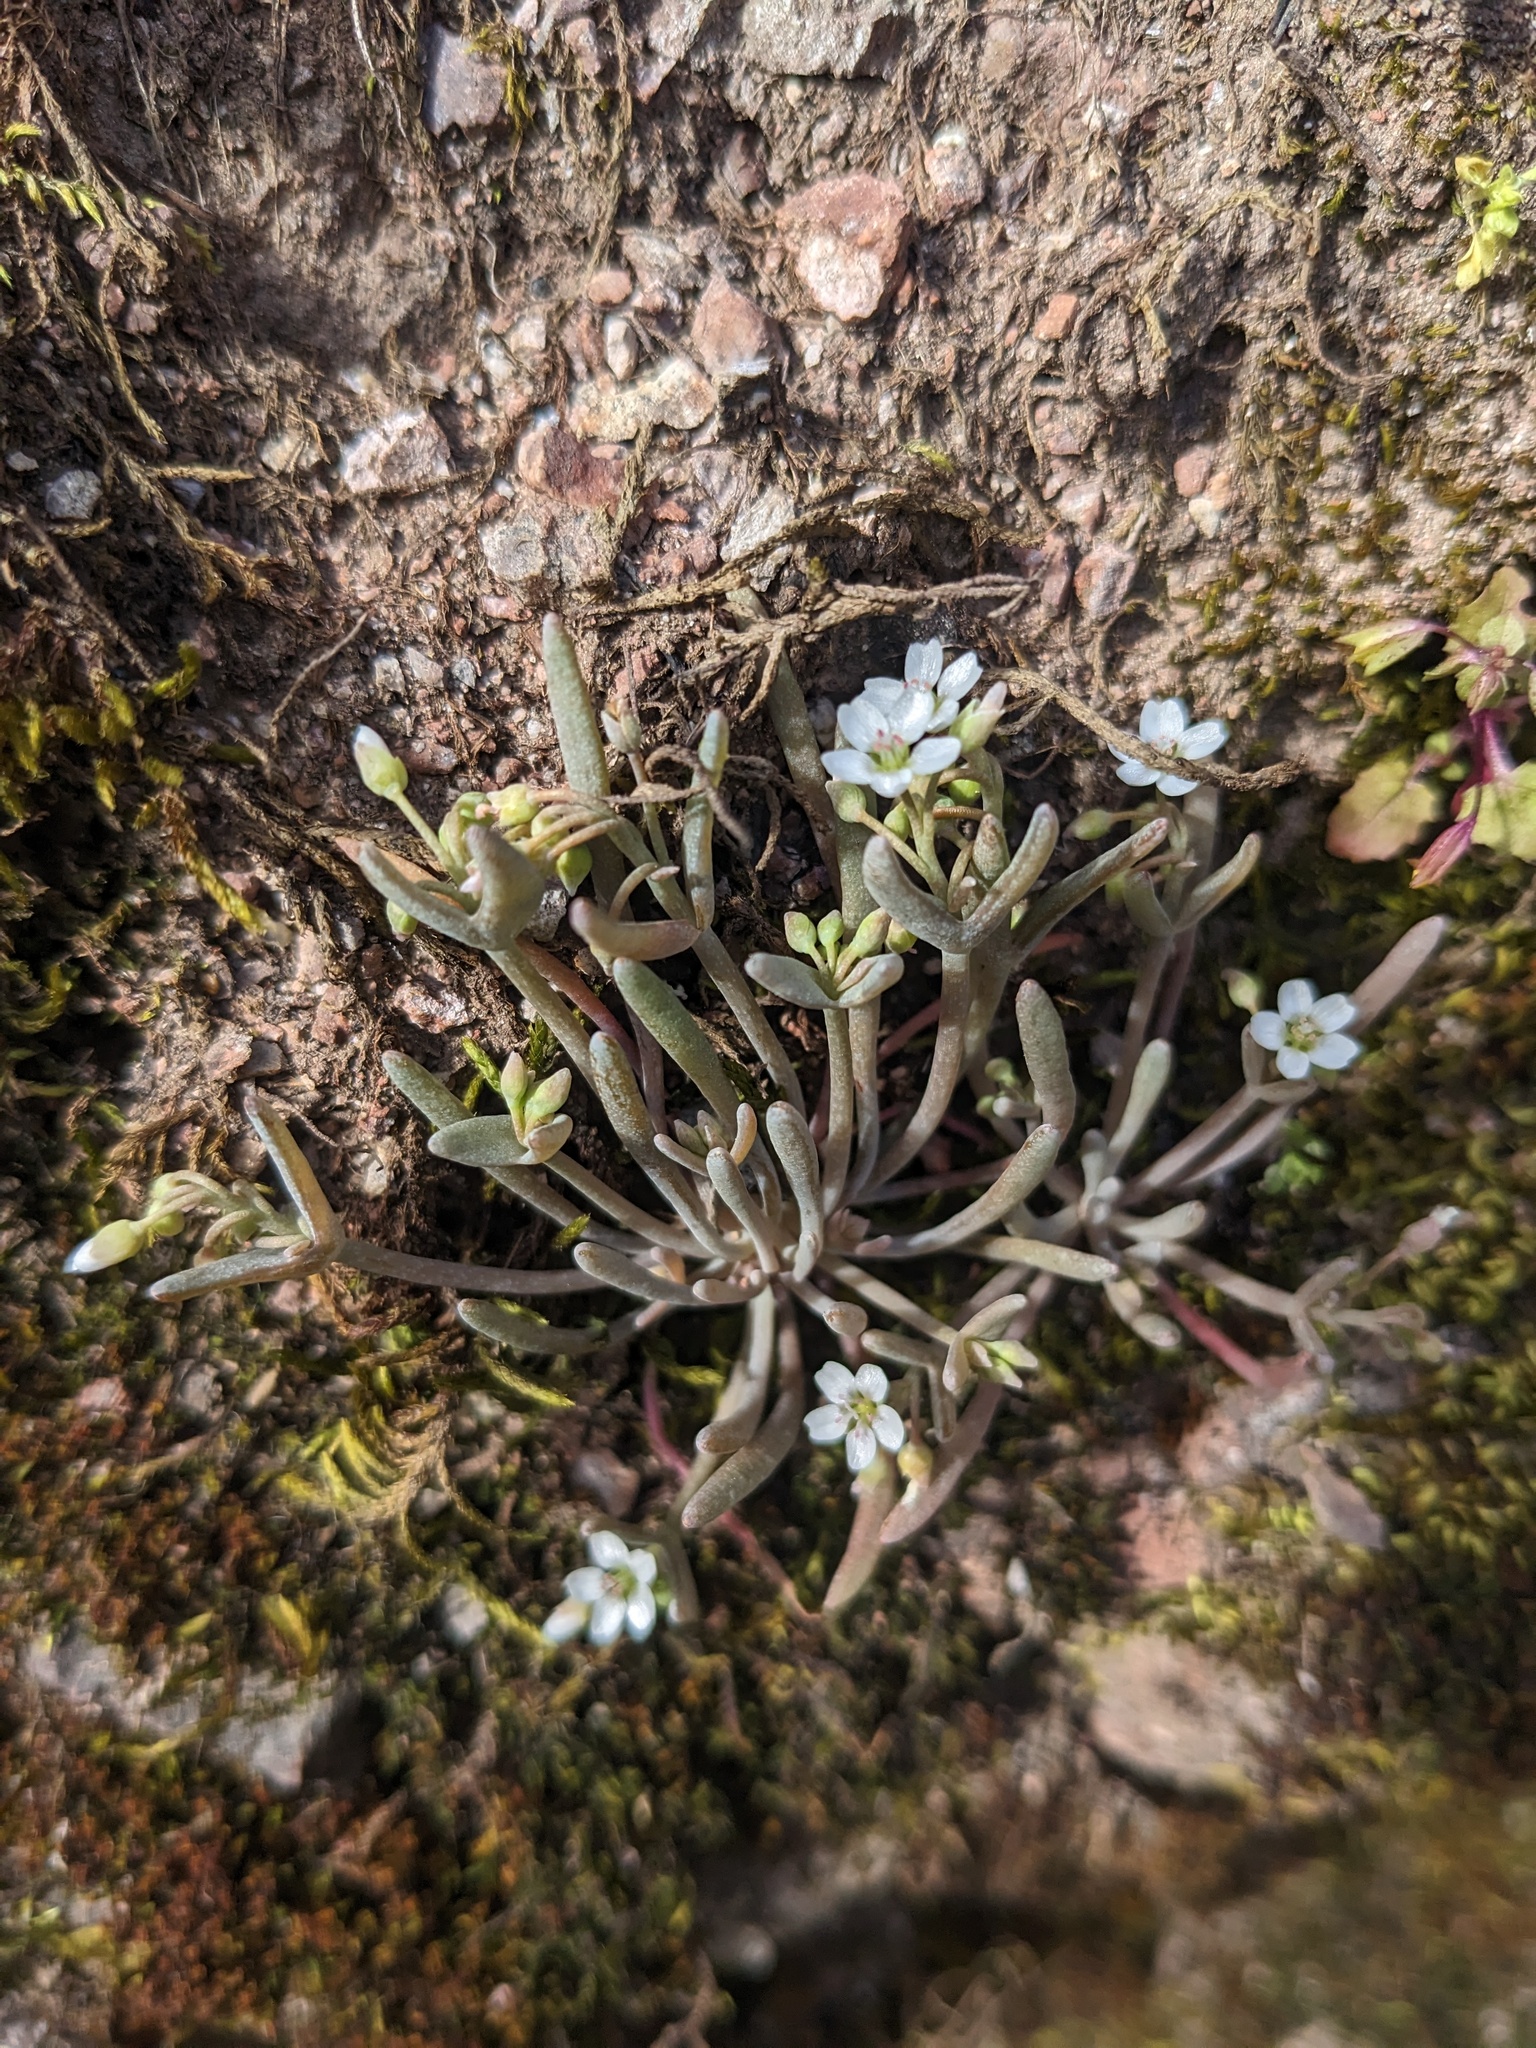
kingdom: Plantae
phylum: Tracheophyta
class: Magnoliopsida
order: Caryophyllales
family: Montiaceae
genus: Claytonia
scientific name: Claytonia exigua
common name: Pale spring beauty
